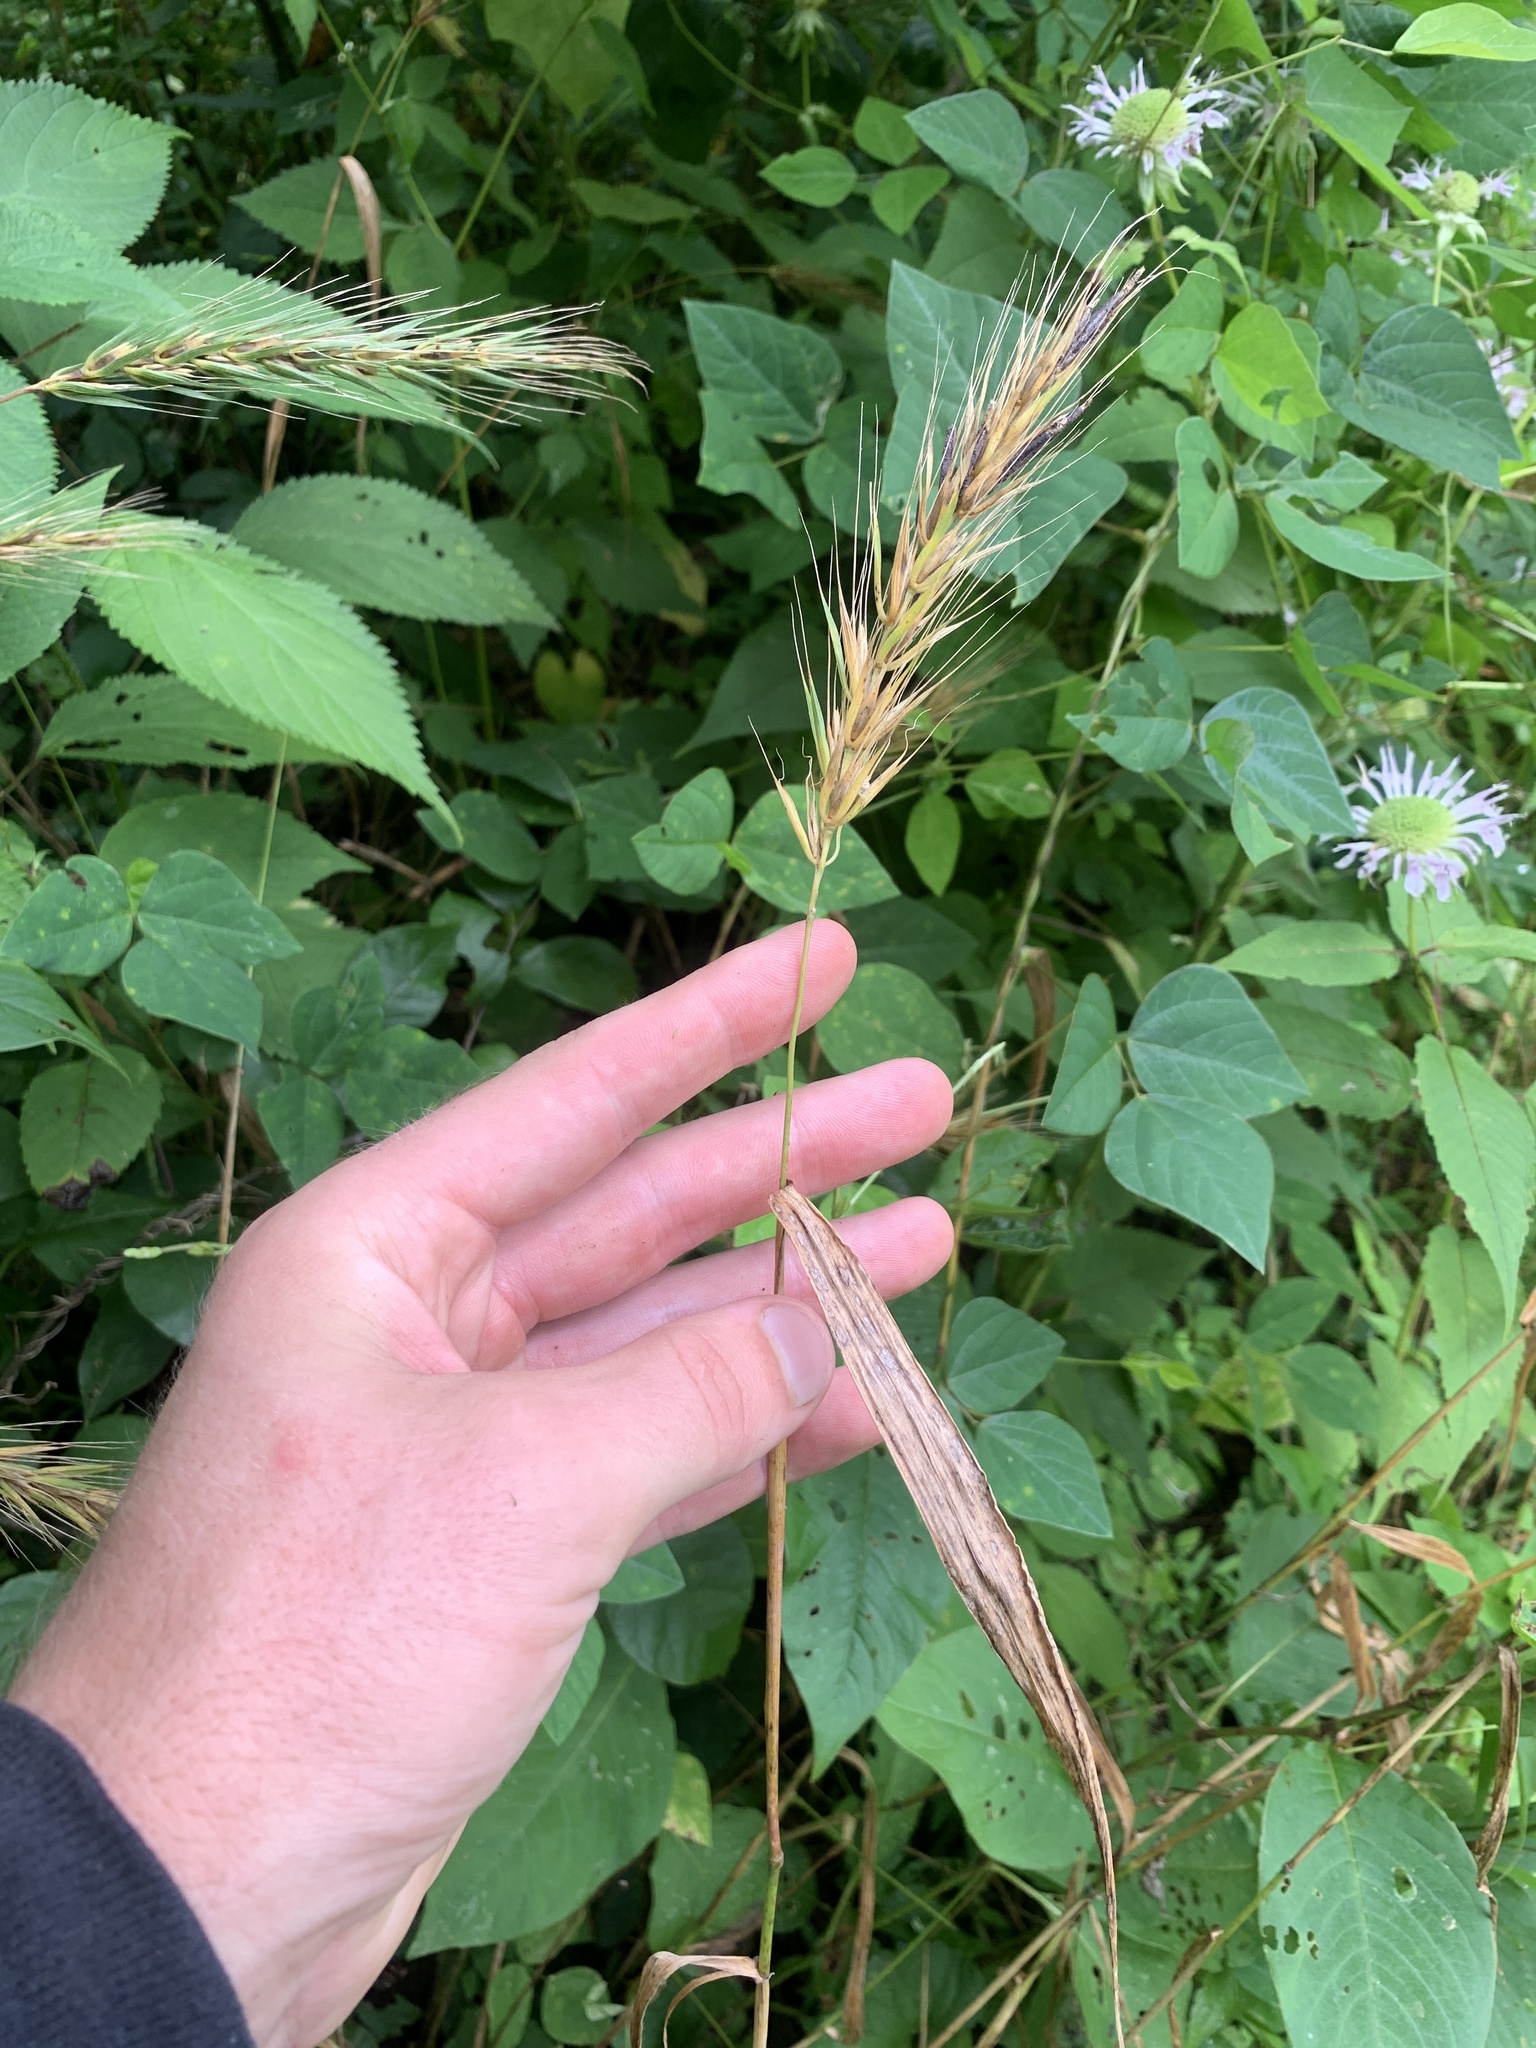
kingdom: Plantae
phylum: Tracheophyta
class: Liliopsida
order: Poales
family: Poaceae
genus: Elymus
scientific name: Elymus macgregorii
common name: Early wild rye
